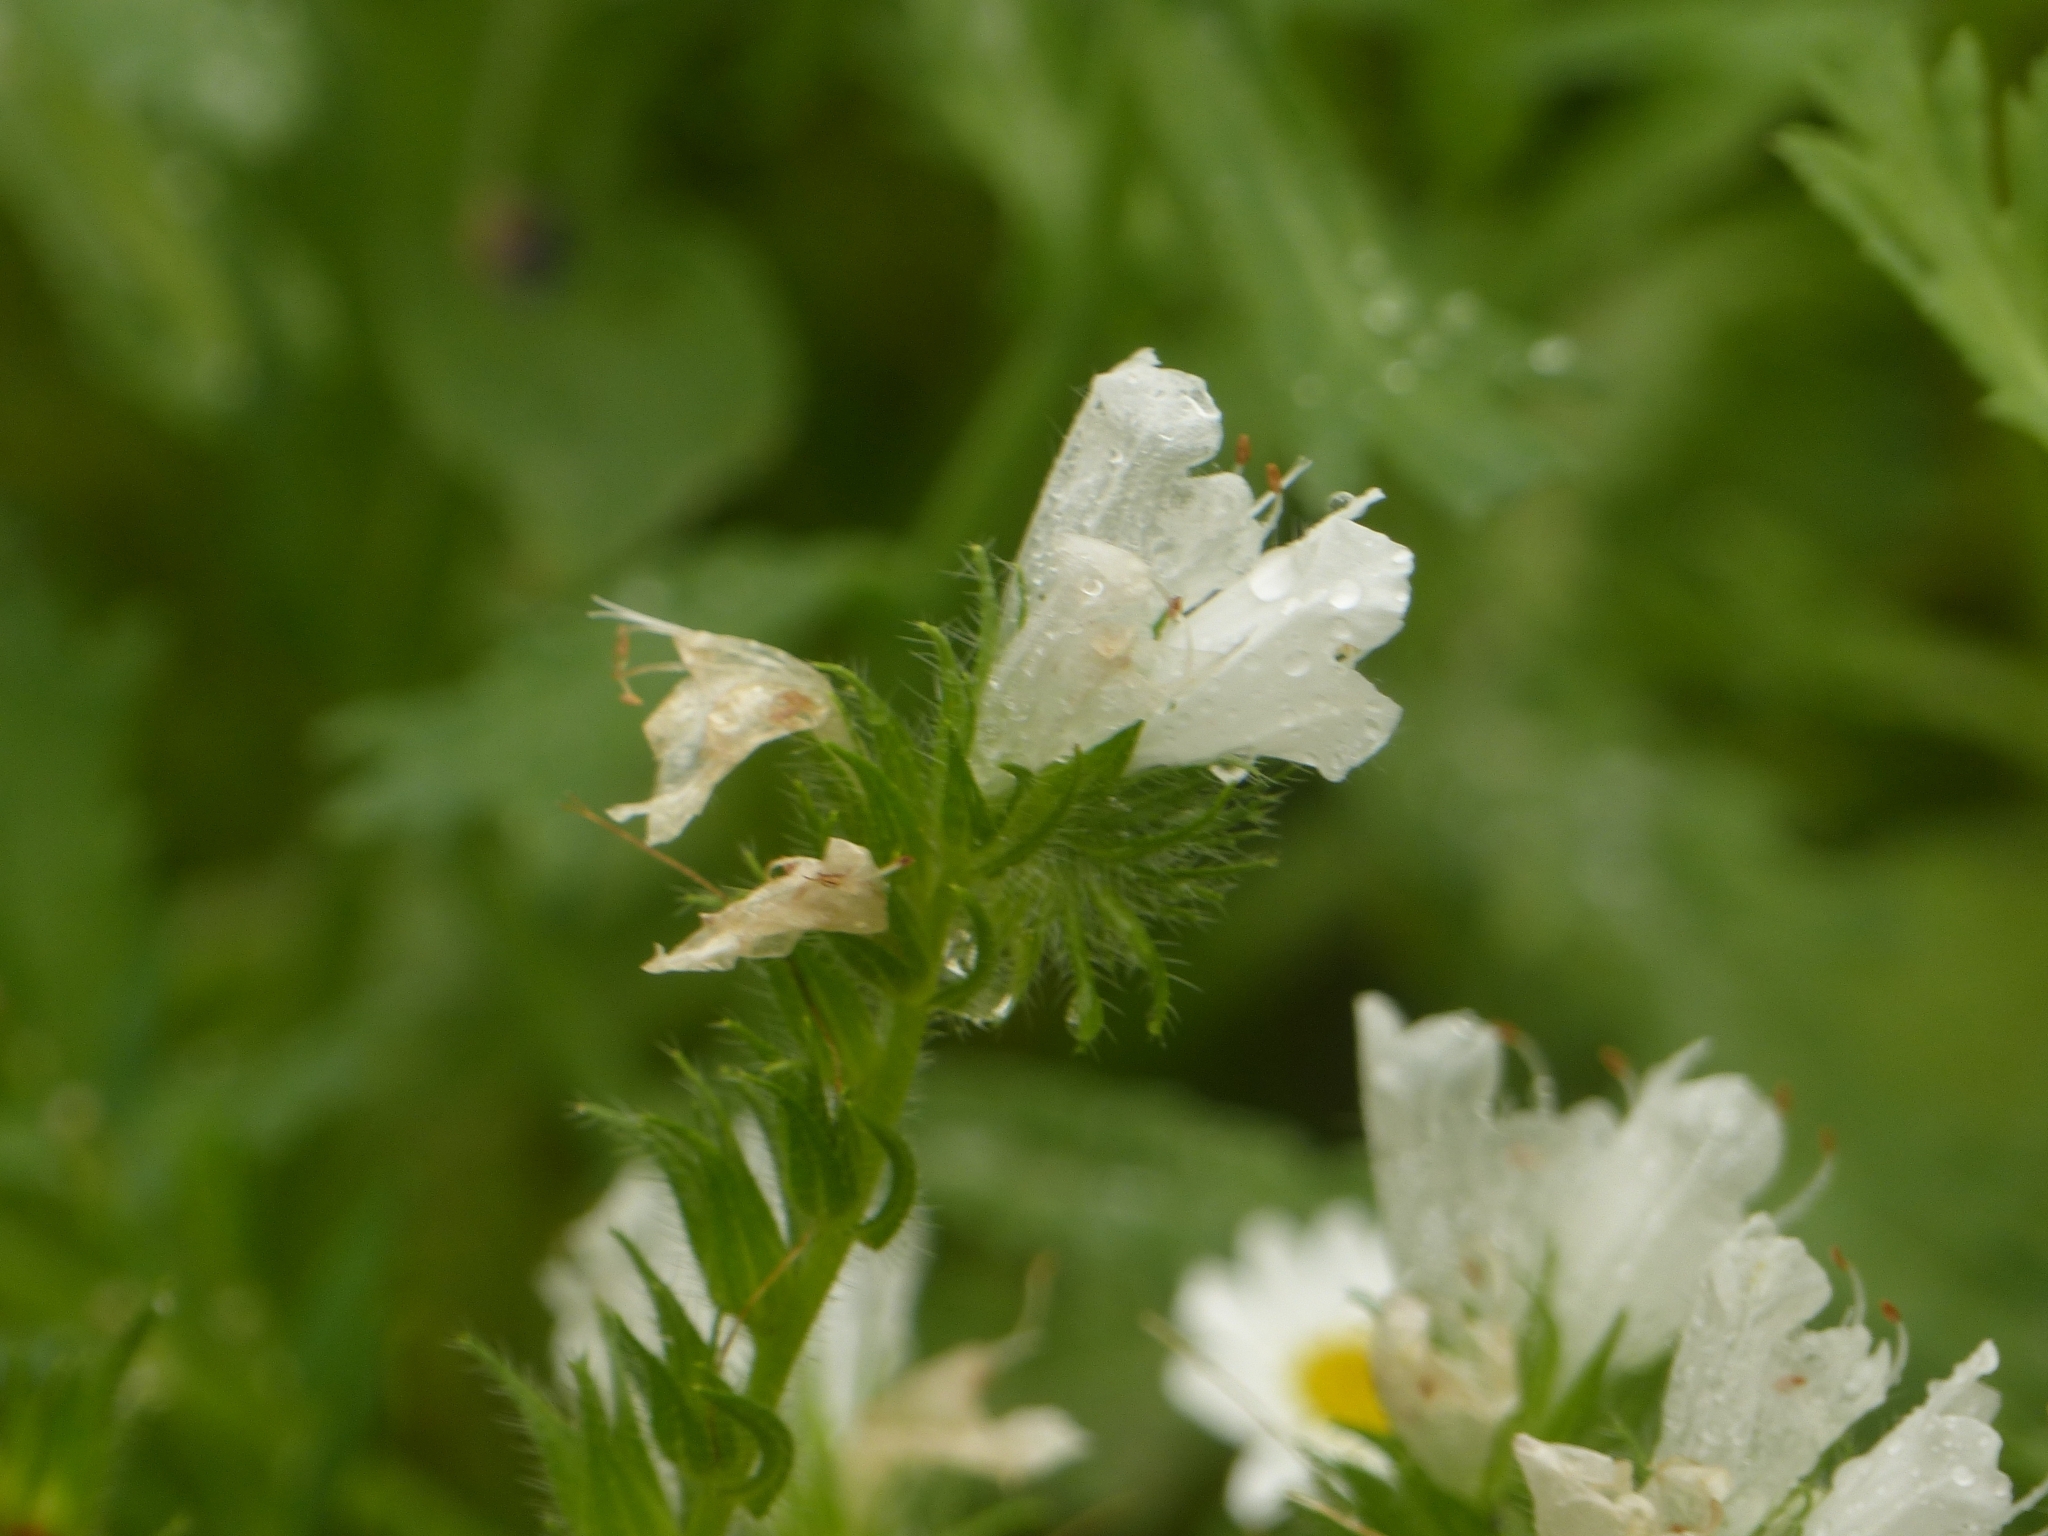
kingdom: Plantae
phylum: Tracheophyta
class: Magnoliopsida
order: Boraginales
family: Boraginaceae
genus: Echium
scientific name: Echium plantagineum
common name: Purple viper's-bugloss
